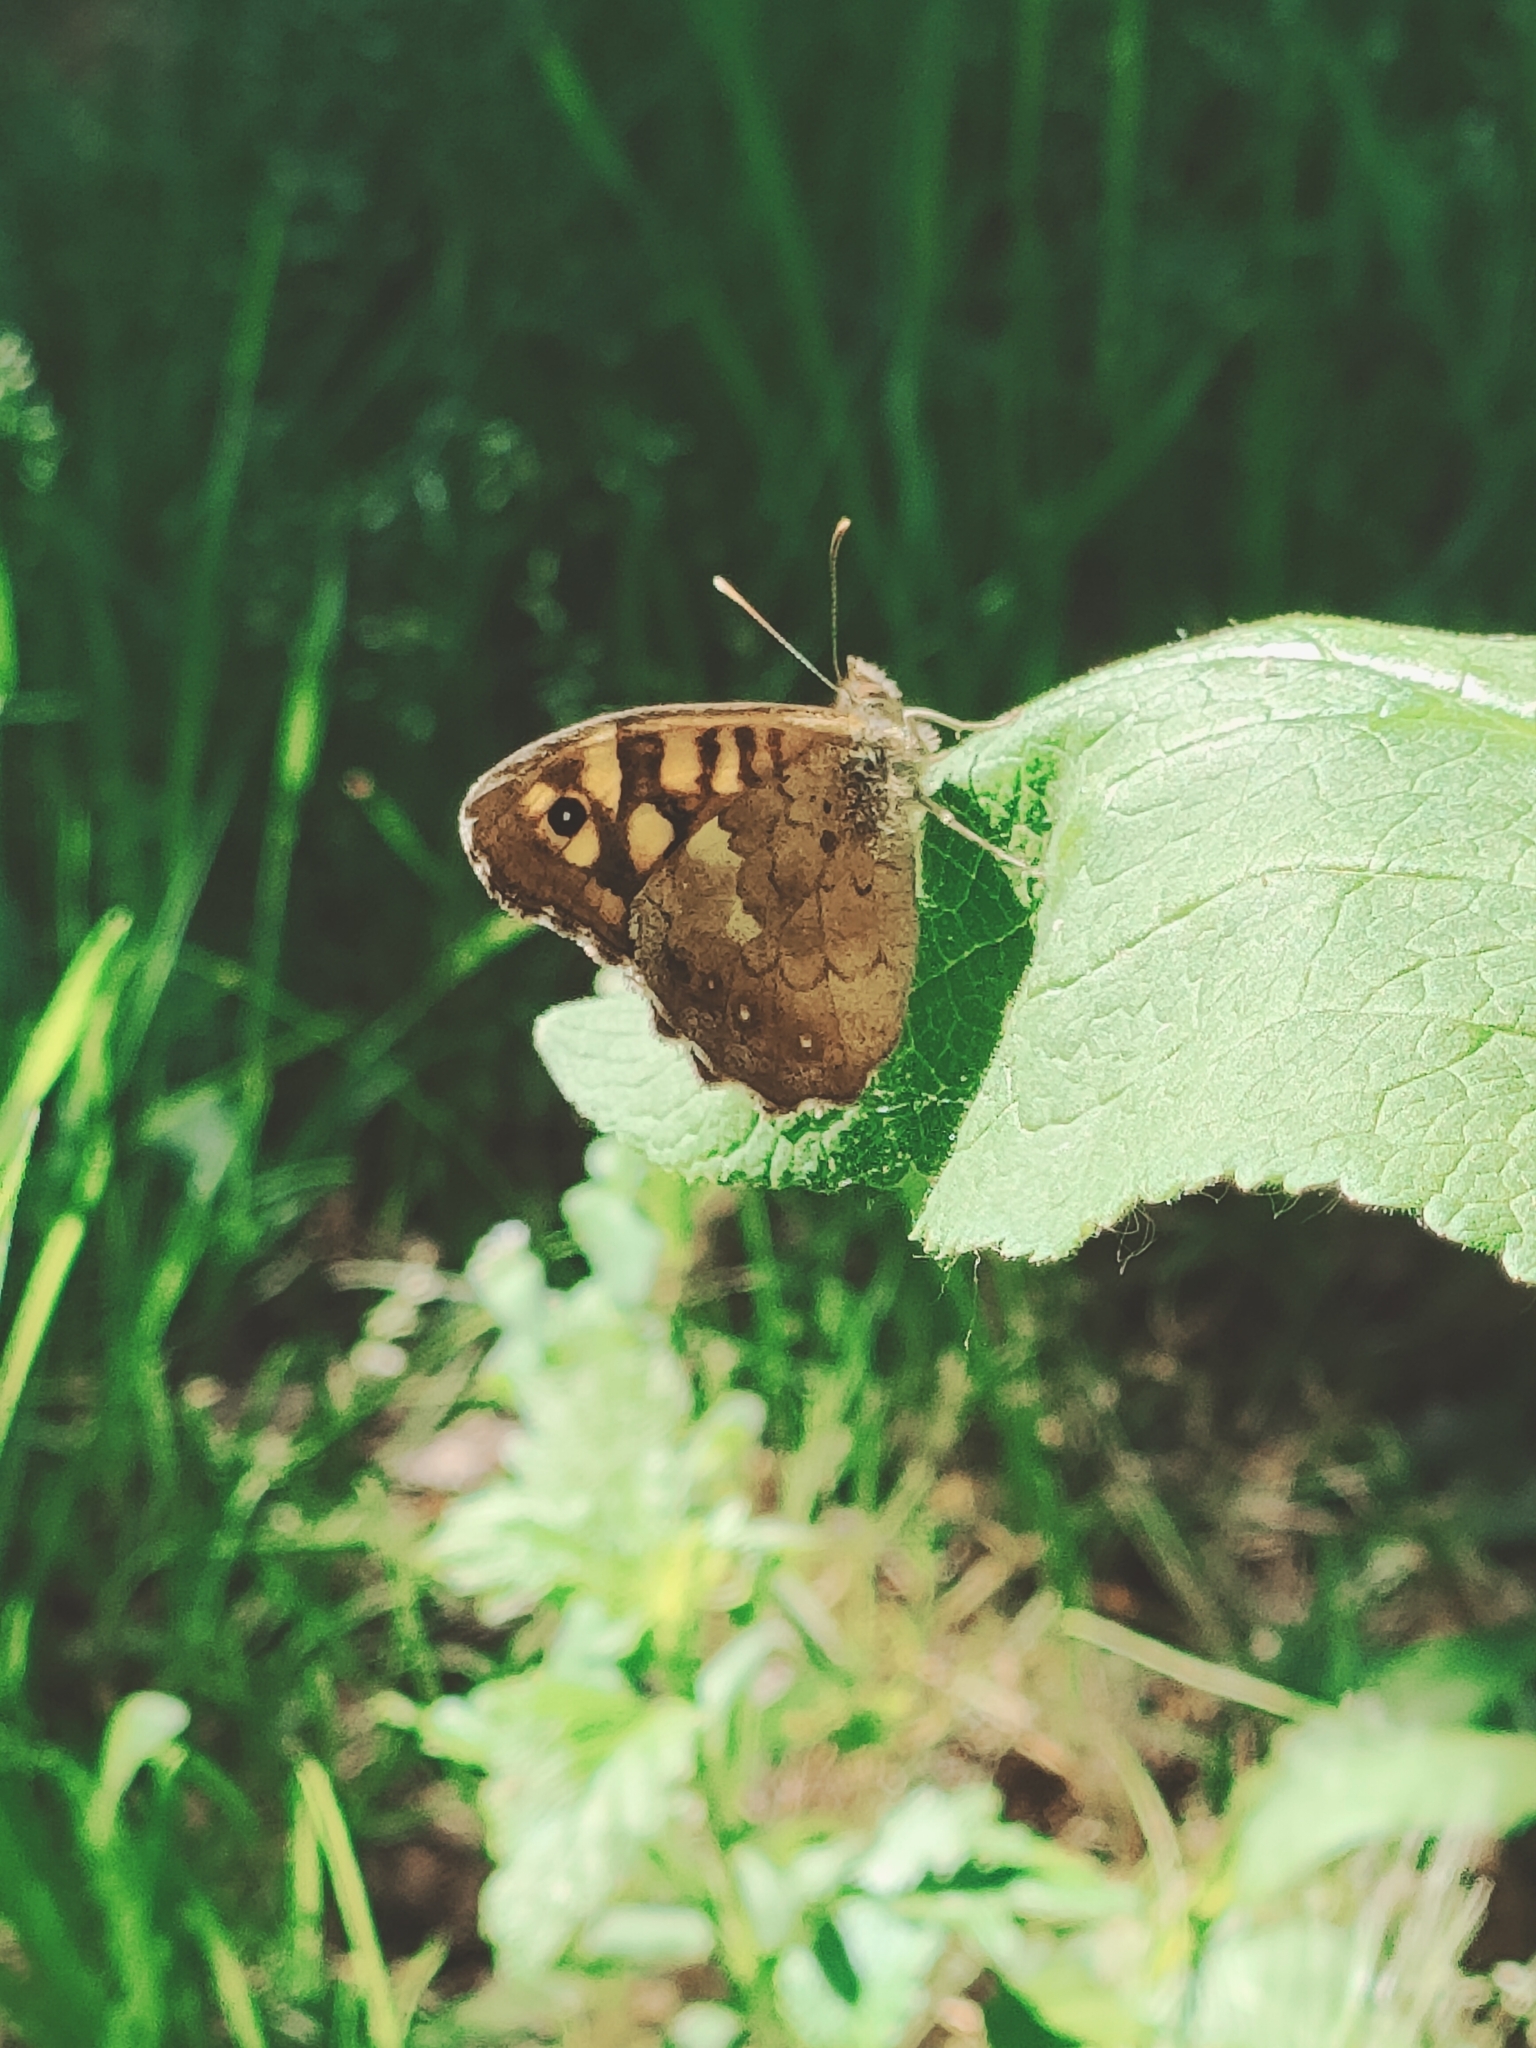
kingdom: Animalia
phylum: Arthropoda
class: Insecta
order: Lepidoptera
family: Nymphalidae
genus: Pararge
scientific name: Pararge aegeria
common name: Speckled wood
